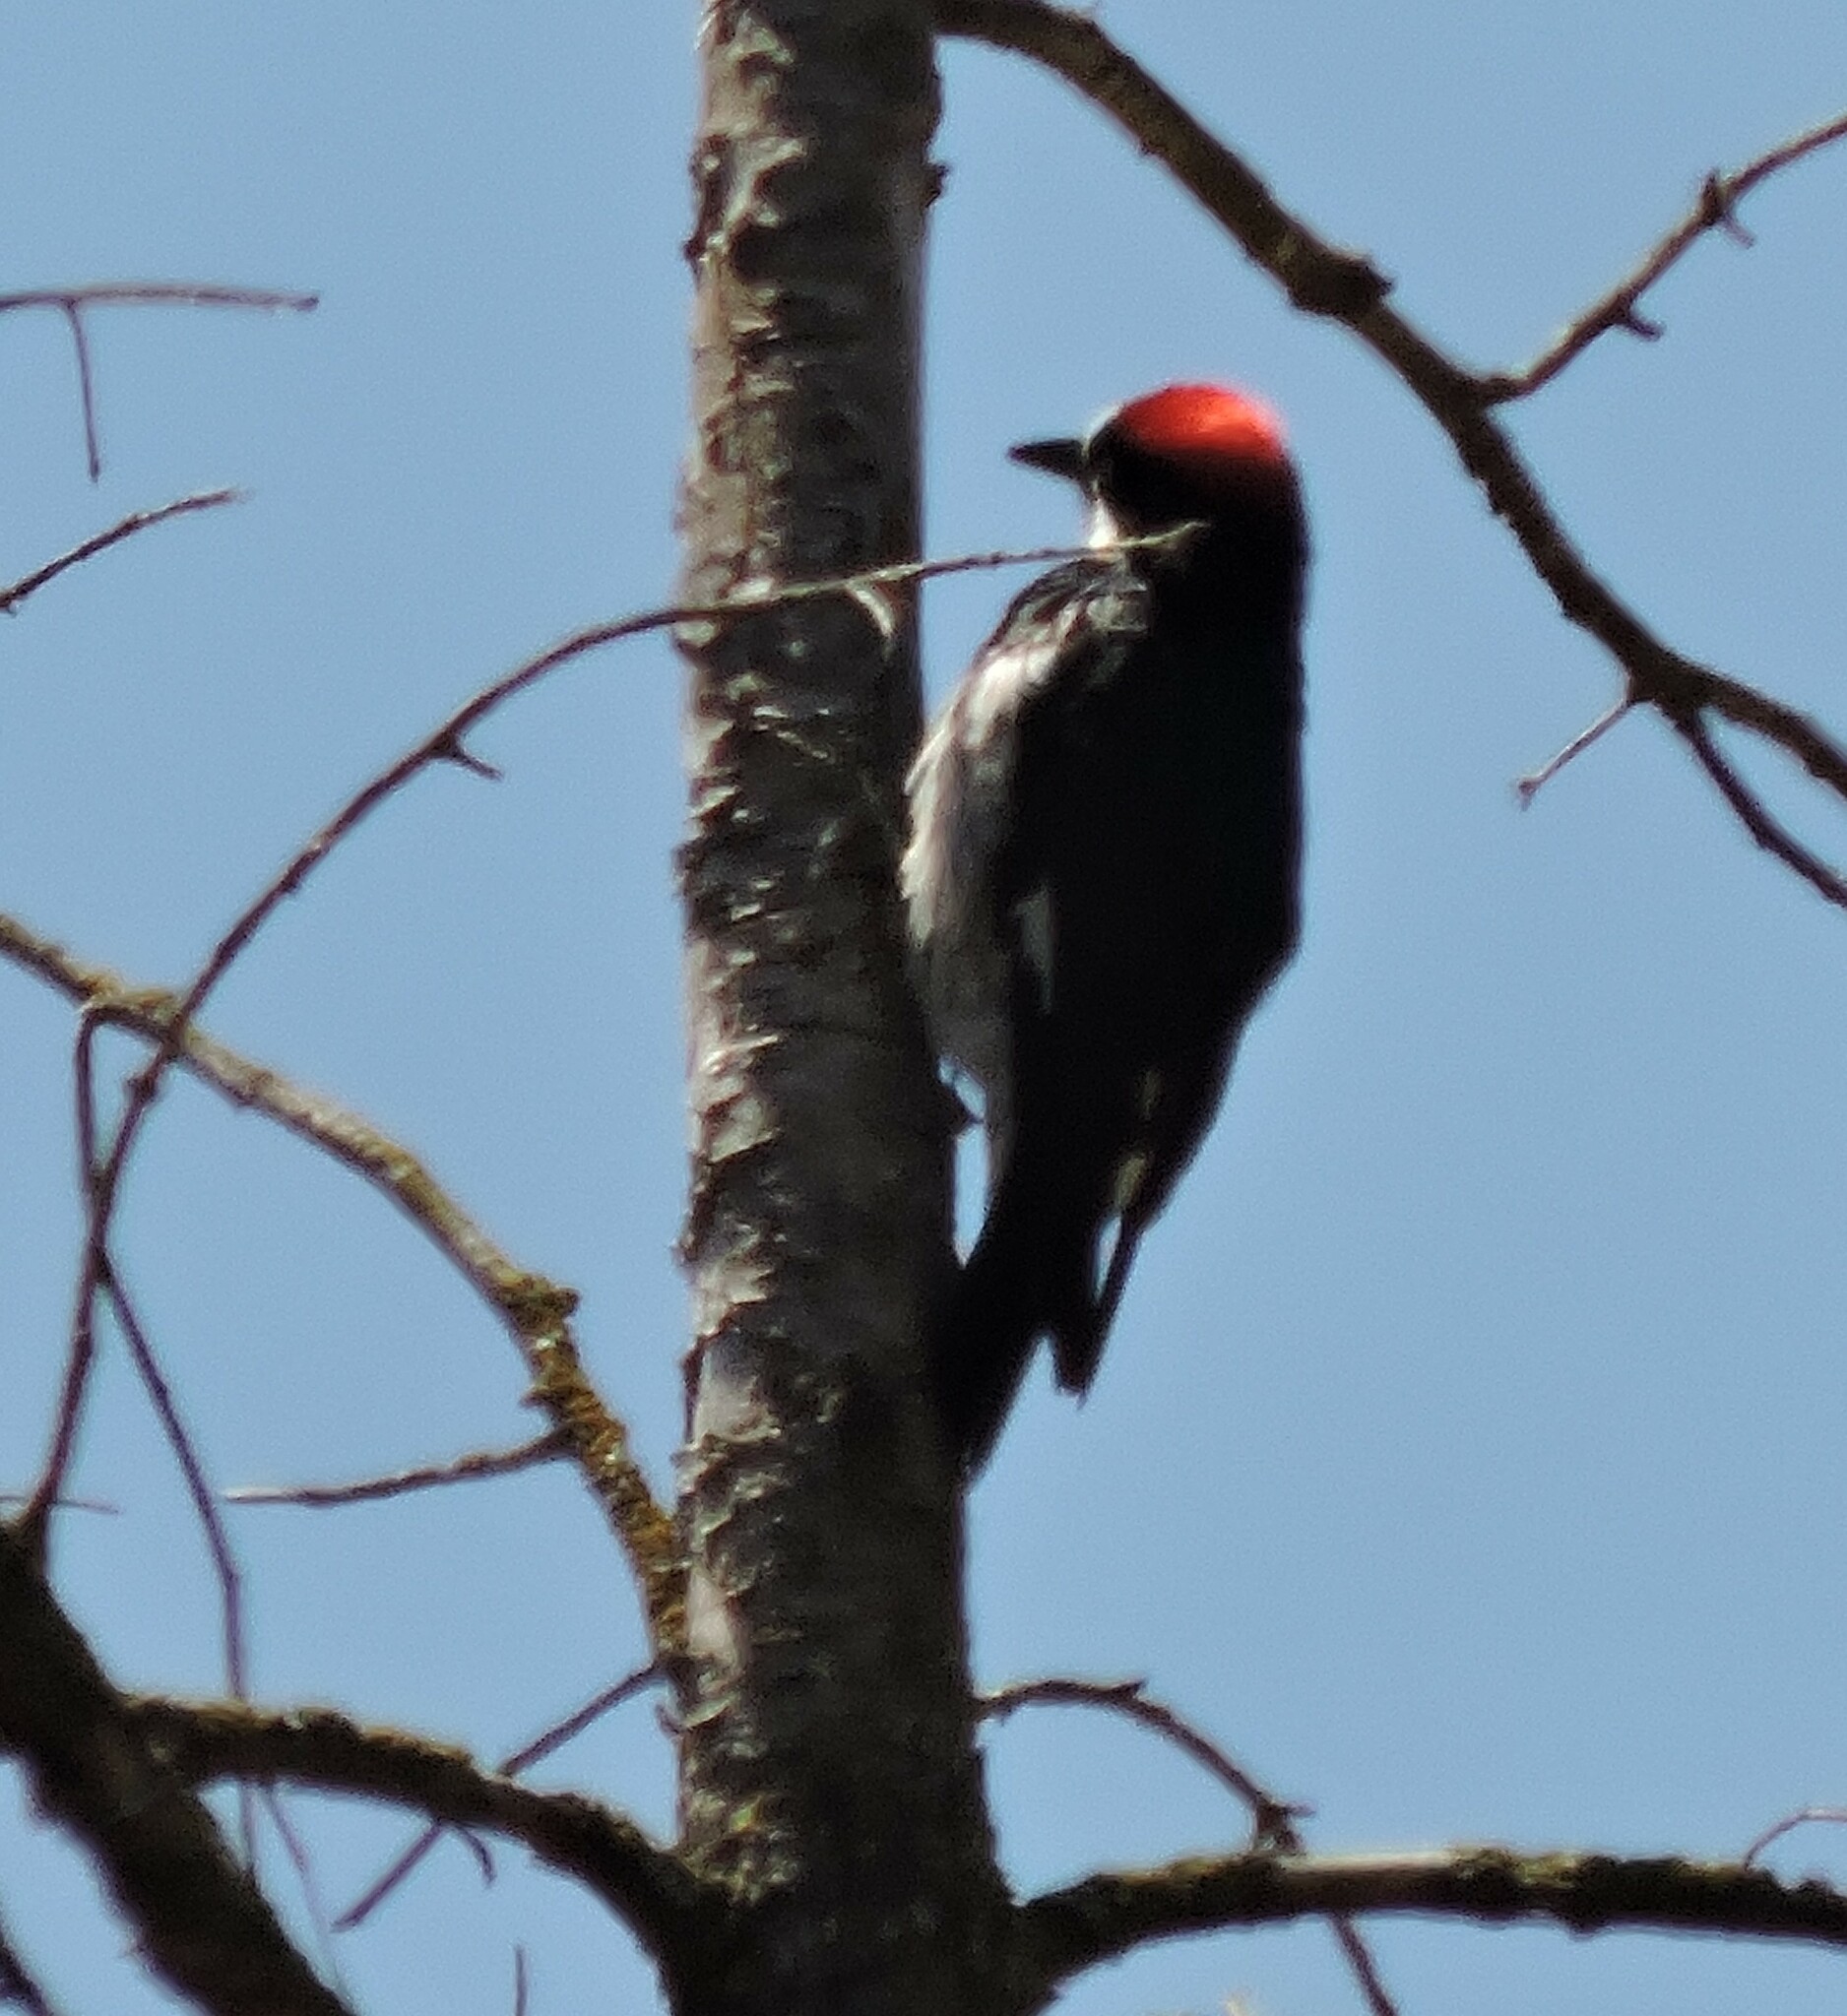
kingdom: Animalia
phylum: Chordata
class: Aves
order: Piciformes
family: Picidae
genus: Melanerpes
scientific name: Melanerpes formicivorus
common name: Acorn woodpecker
